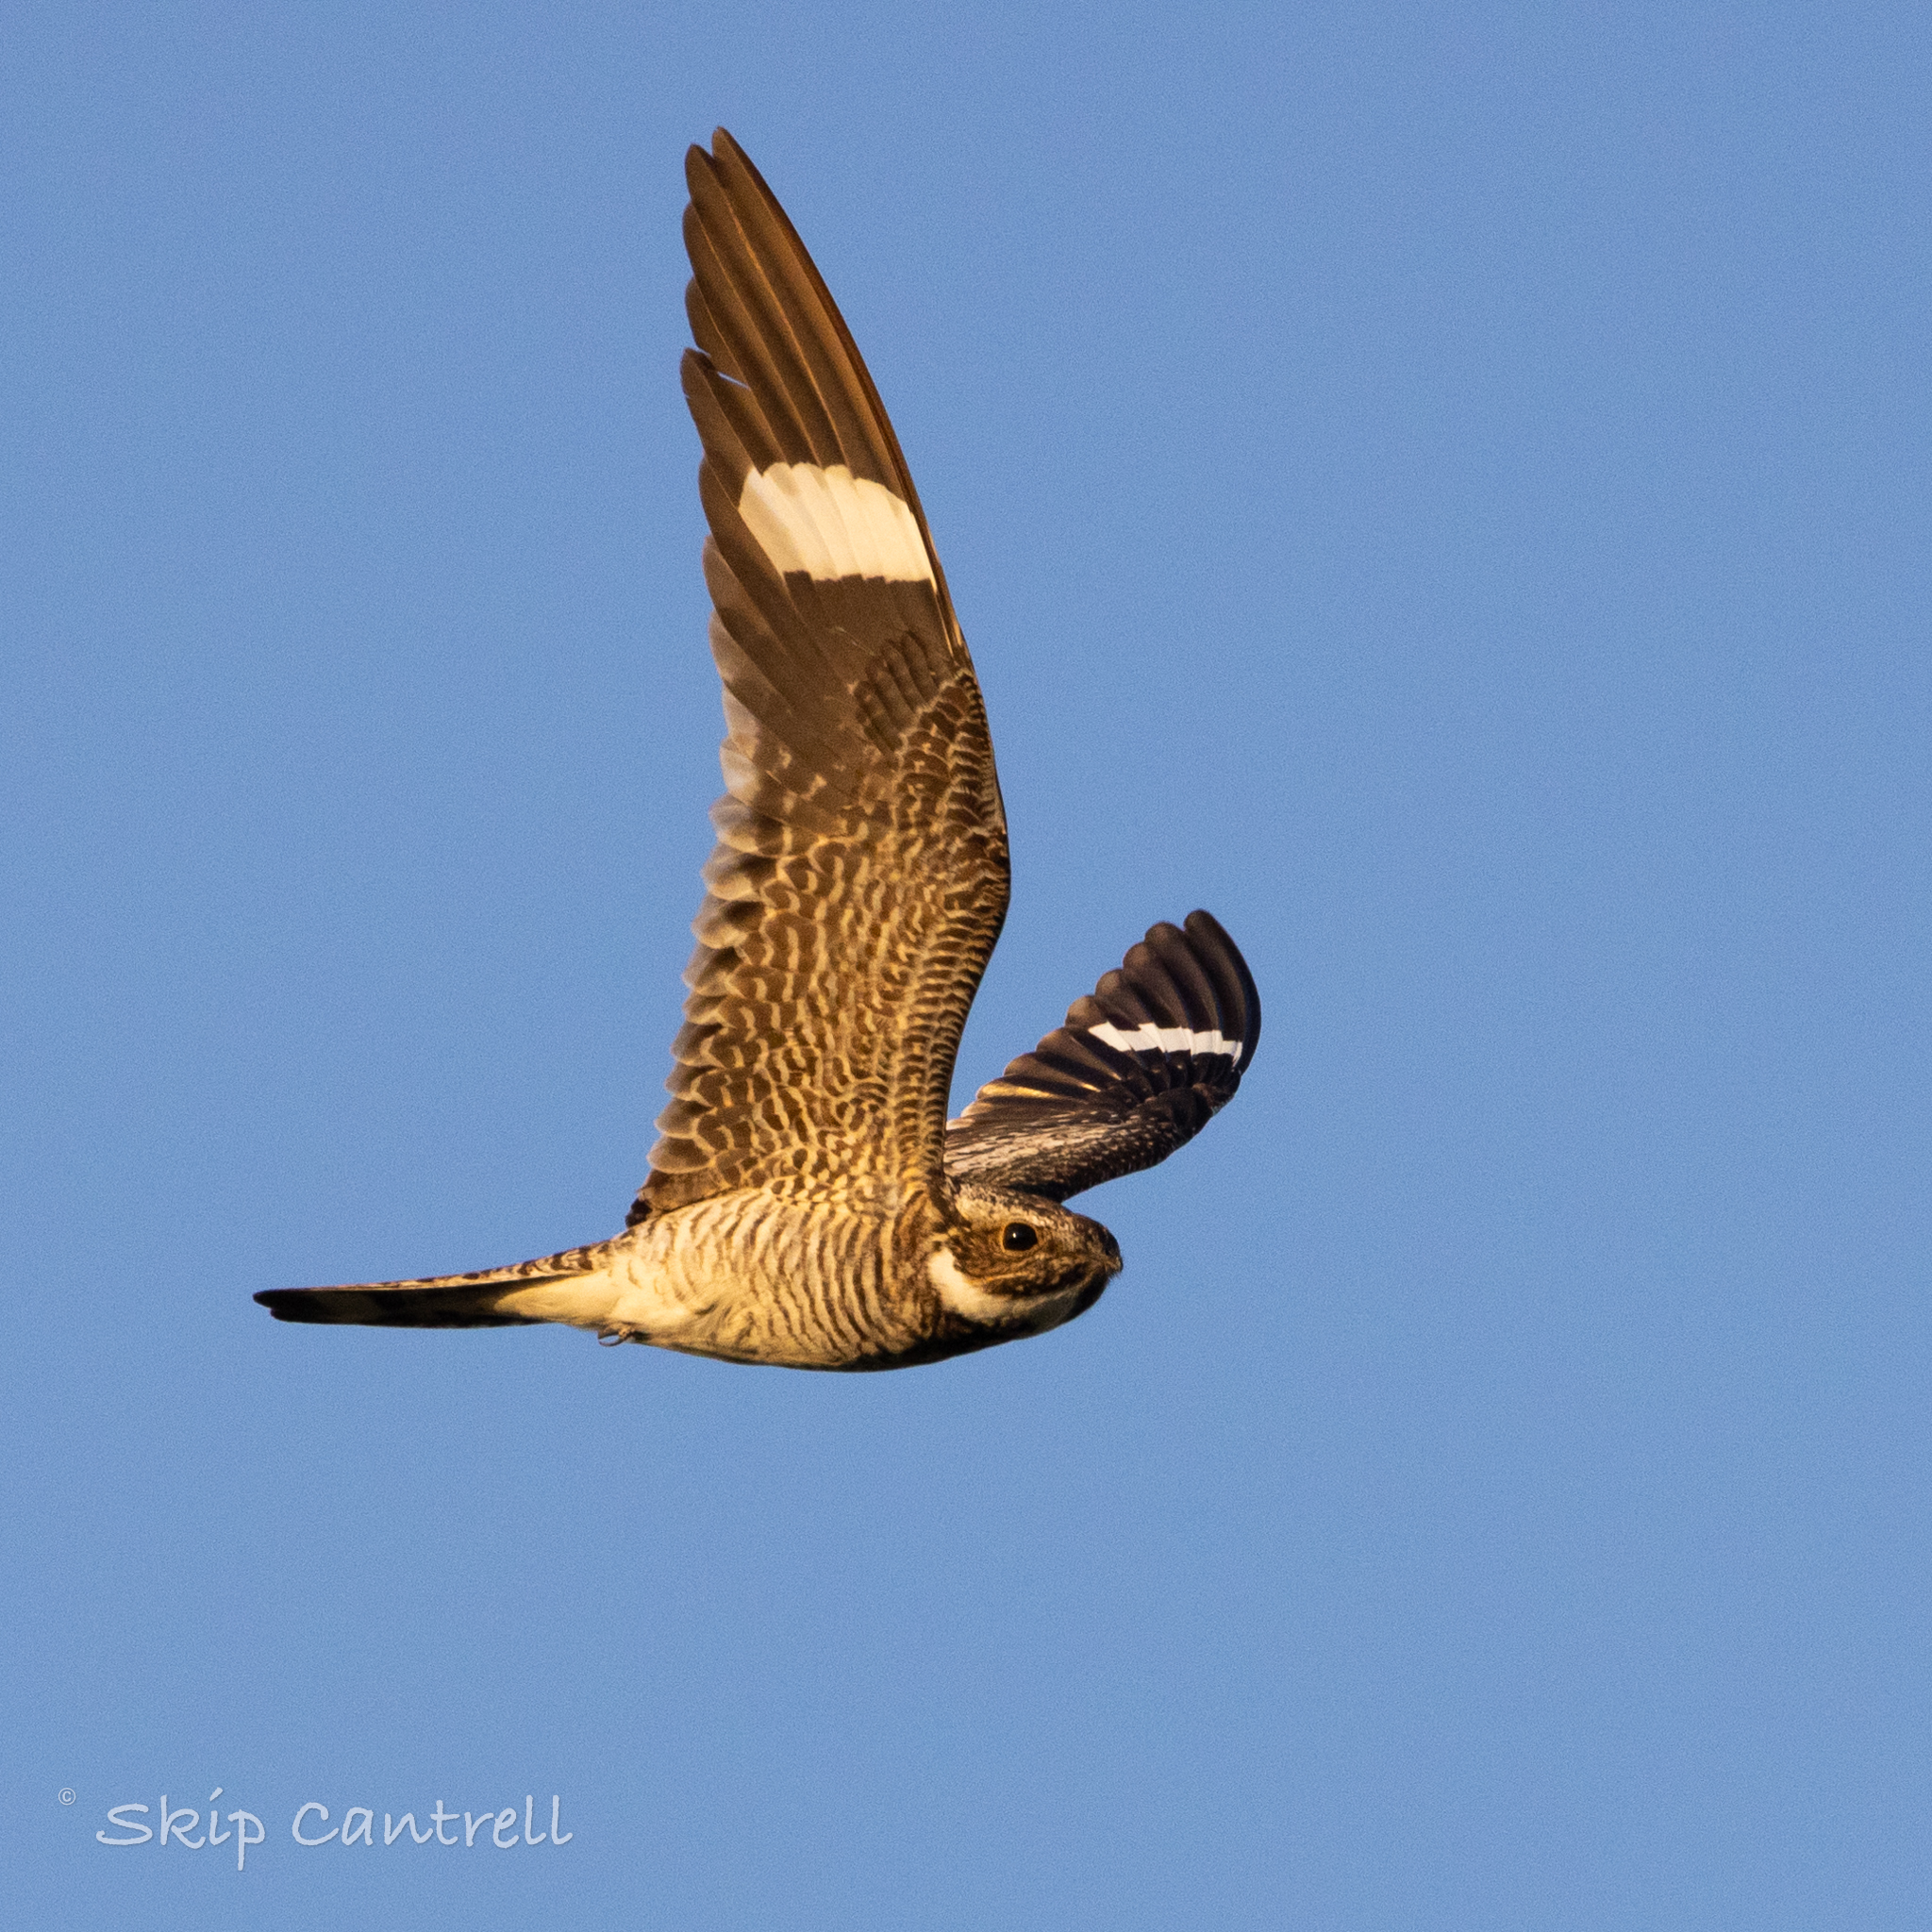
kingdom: Animalia
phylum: Chordata
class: Aves
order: Caprimulgiformes
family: Caprimulgidae
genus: Chordeiles
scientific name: Chordeiles minor
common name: Common nighthawk
